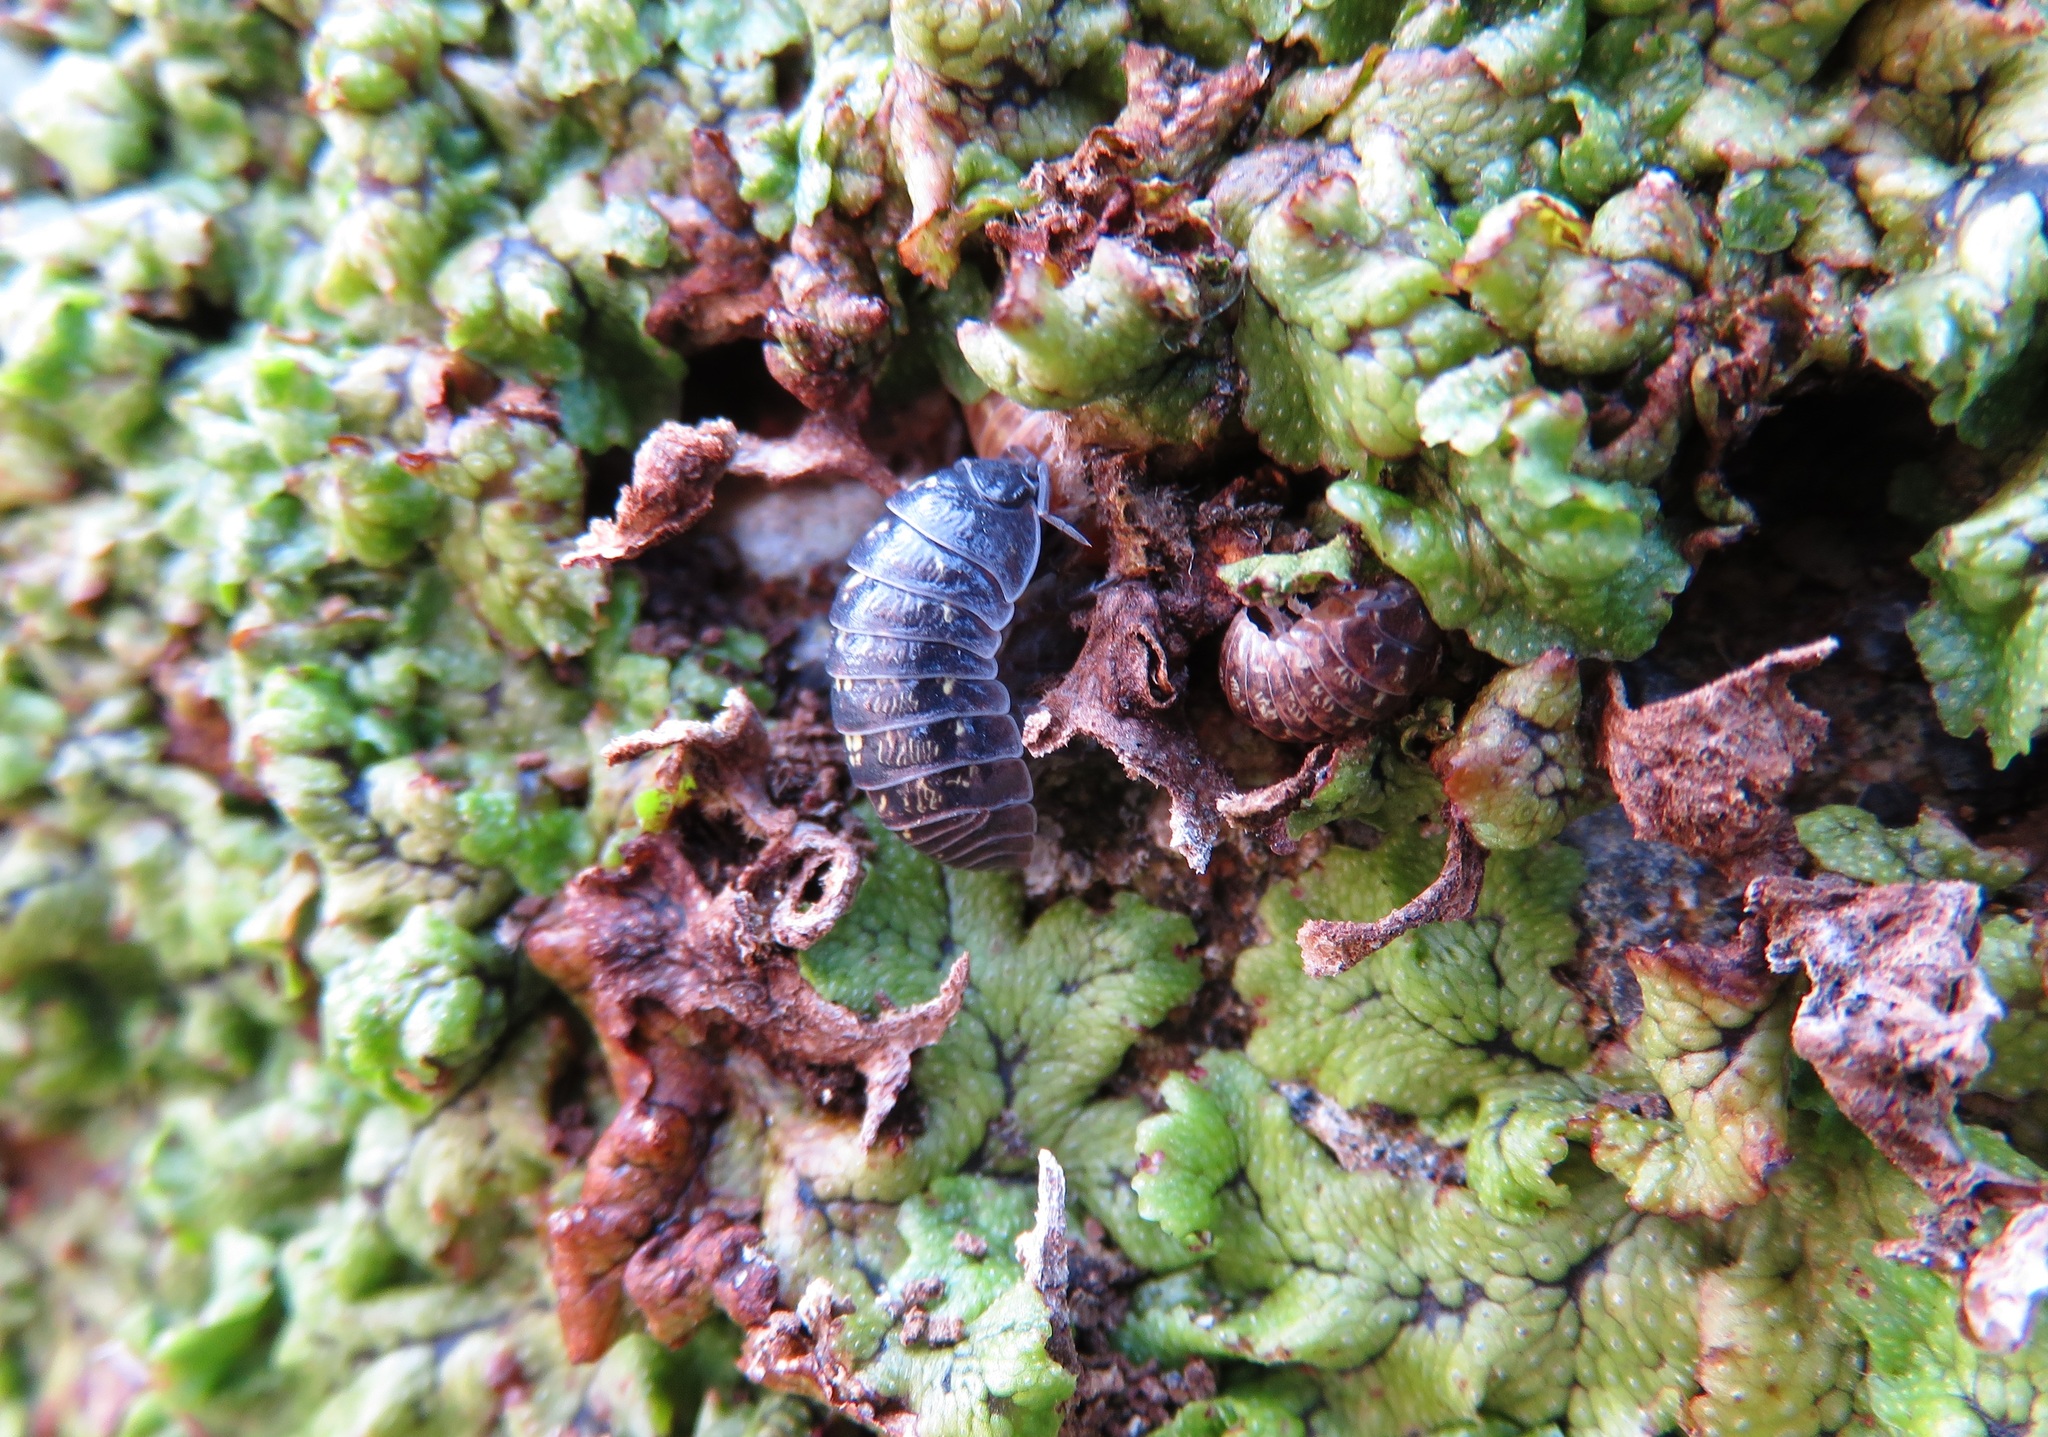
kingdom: Animalia
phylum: Arthropoda
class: Malacostraca
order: Isopoda
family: Armadillidiidae
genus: Armadillidium
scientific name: Armadillidium vulgare
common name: Common pill woodlouse
